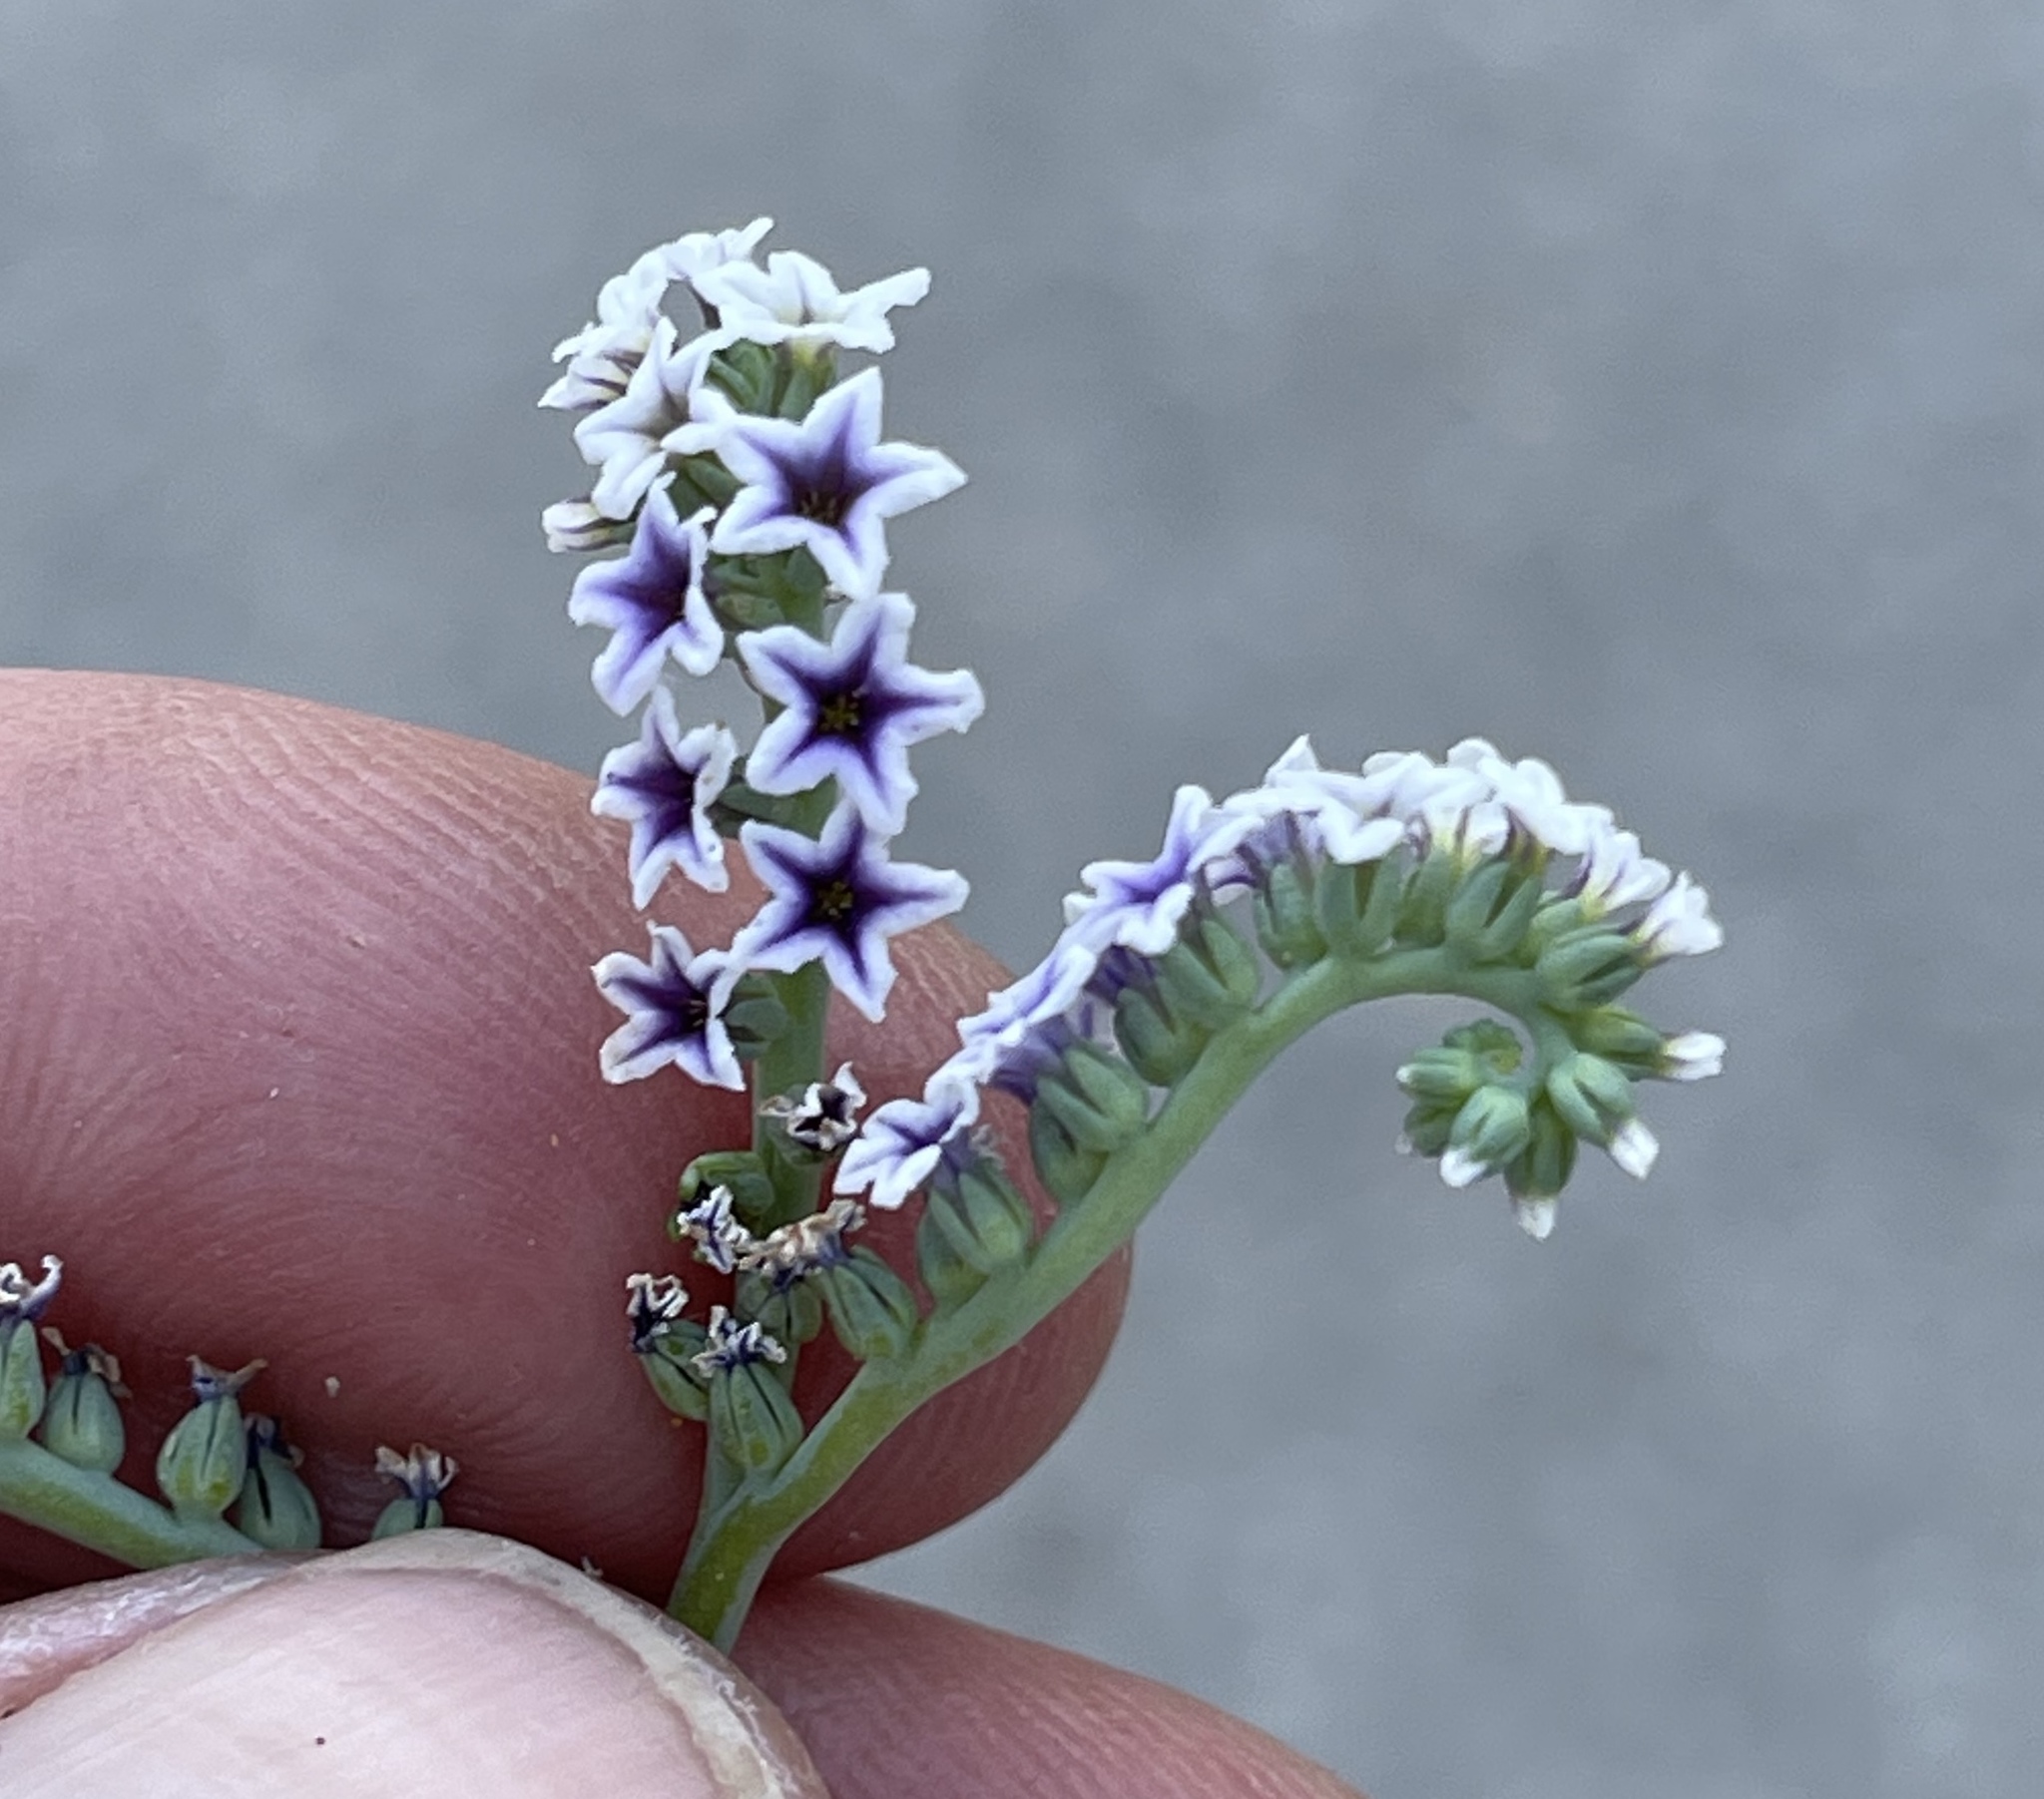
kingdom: Plantae
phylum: Tracheophyta
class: Magnoliopsida
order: Boraginales
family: Heliotropiaceae
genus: Heliotropium
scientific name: Heliotropium curassavicum
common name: Seaside heliotrope
